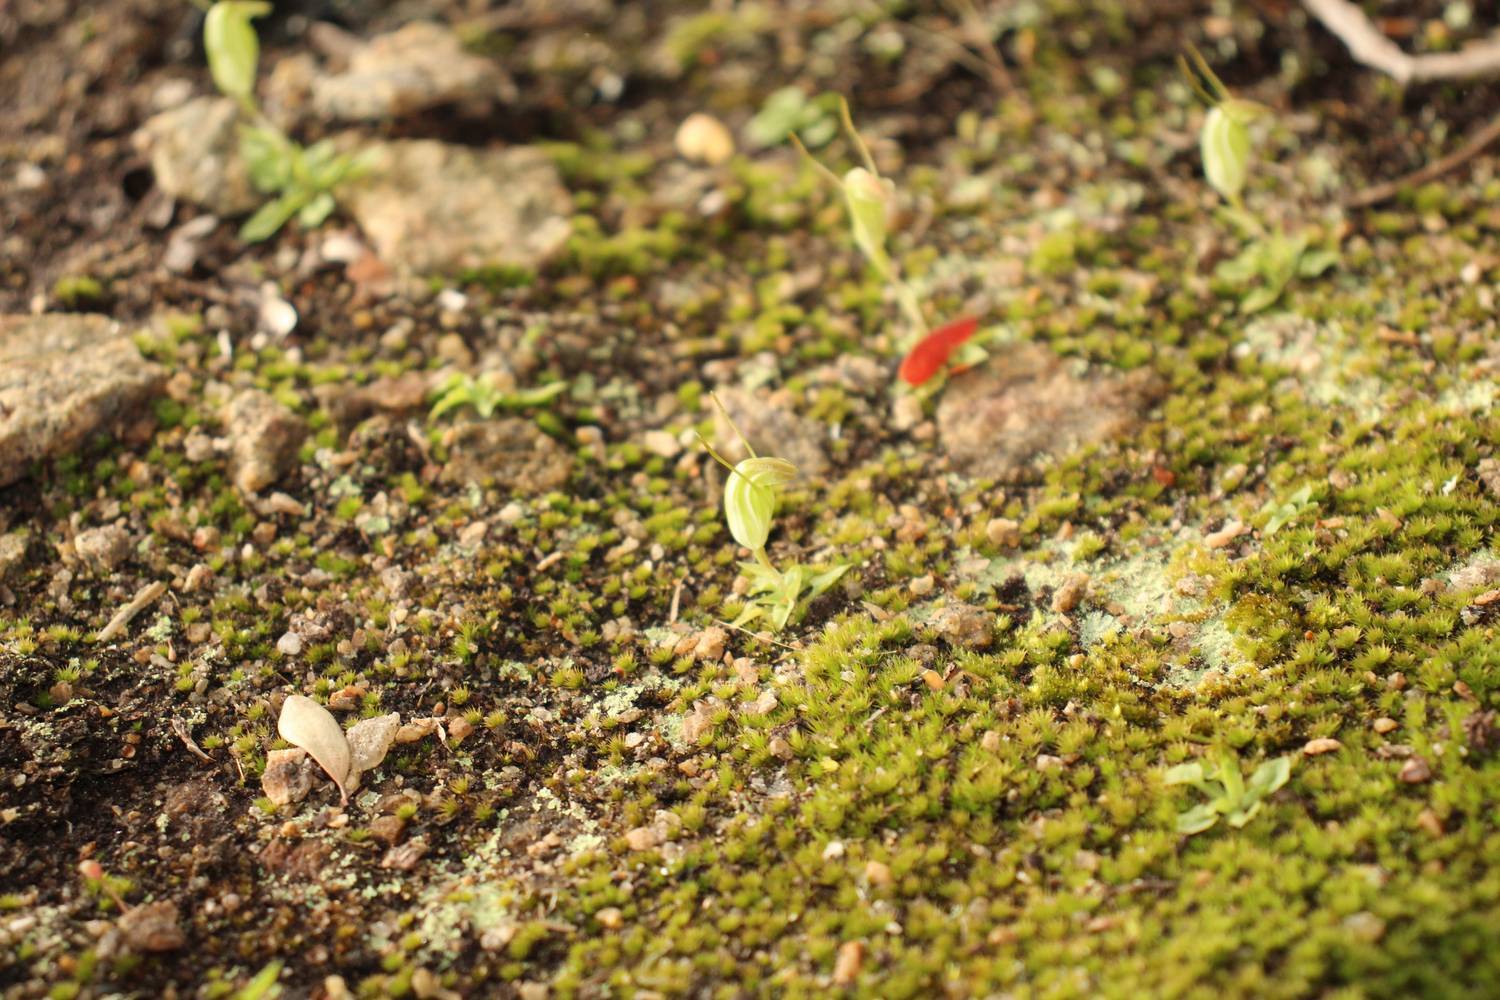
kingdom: Plantae
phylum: Tracheophyta
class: Liliopsida
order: Asparagales
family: Orchidaceae
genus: Pterostylis
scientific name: Pterostylis lortensis
